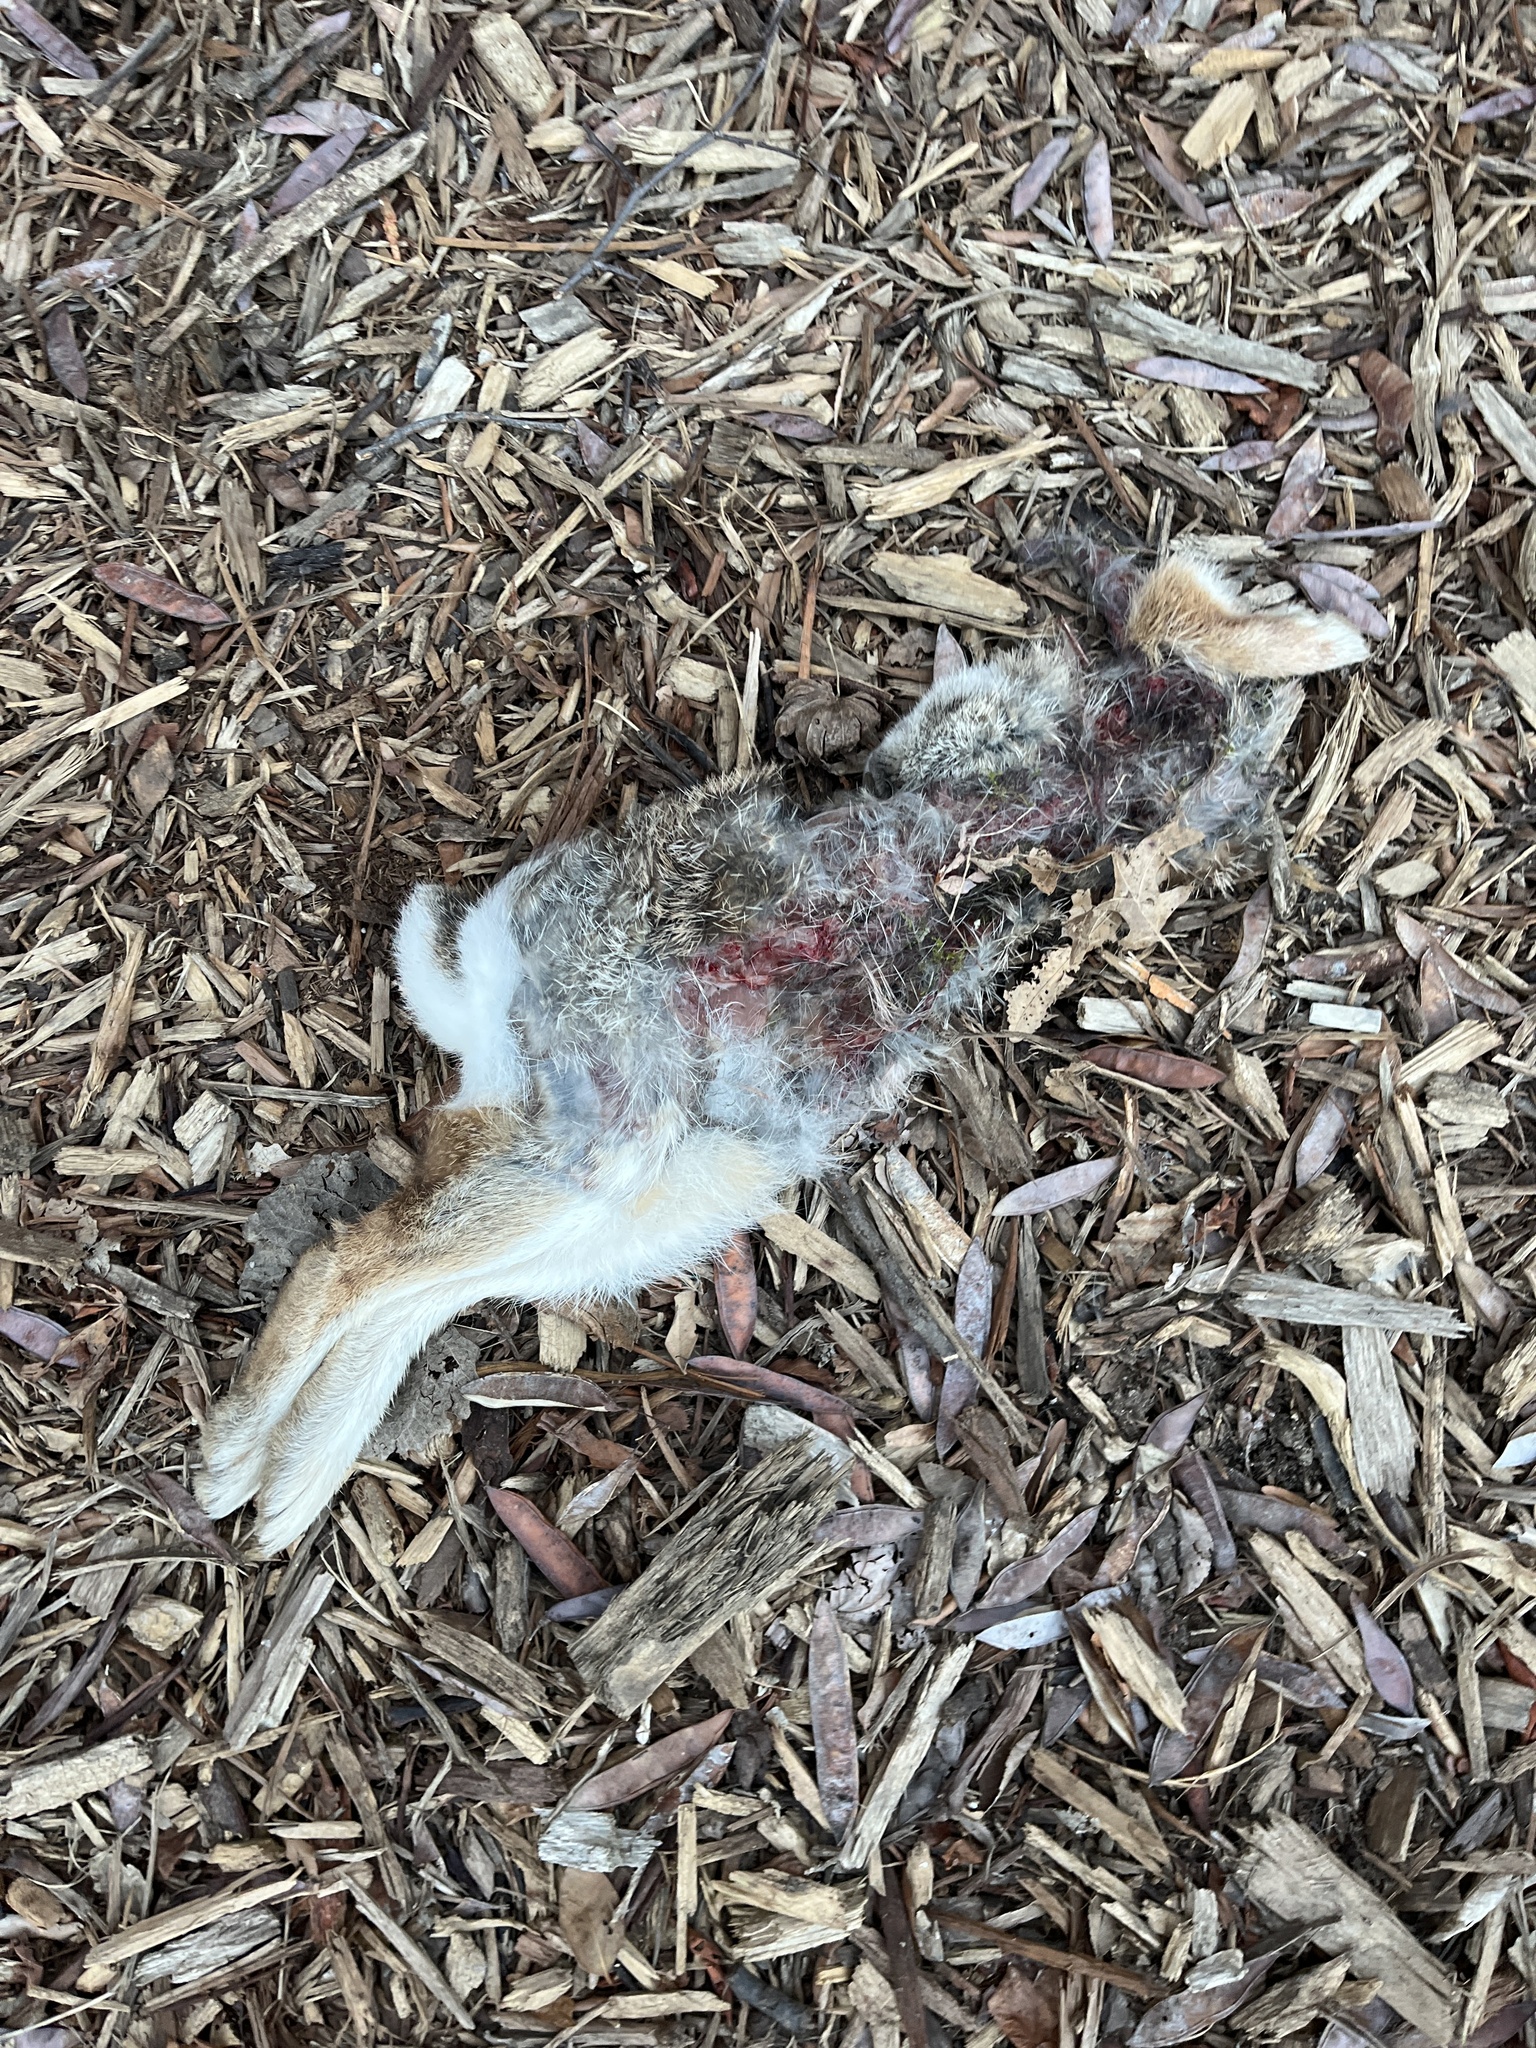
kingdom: Animalia
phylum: Chordata
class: Mammalia
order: Lagomorpha
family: Leporidae
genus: Sylvilagus
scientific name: Sylvilagus floridanus
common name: Eastern cottontail
